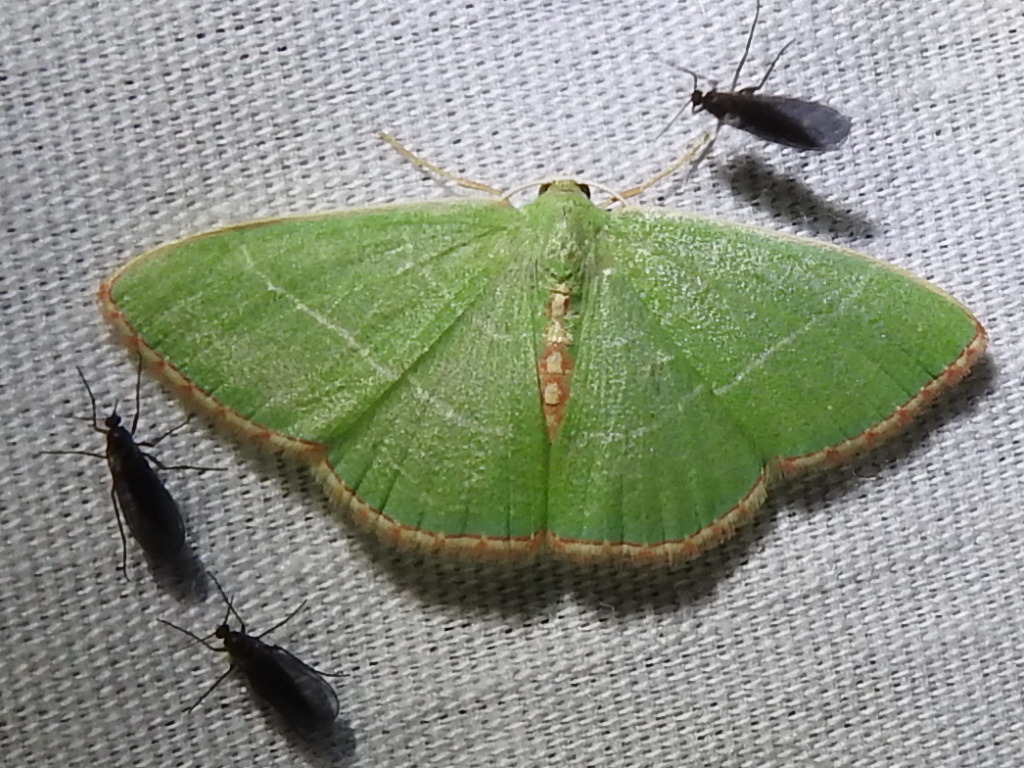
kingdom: Animalia
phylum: Arthropoda
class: Insecta
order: Lepidoptera
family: Geometridae
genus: Nemoria
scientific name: Nemoria festaria
